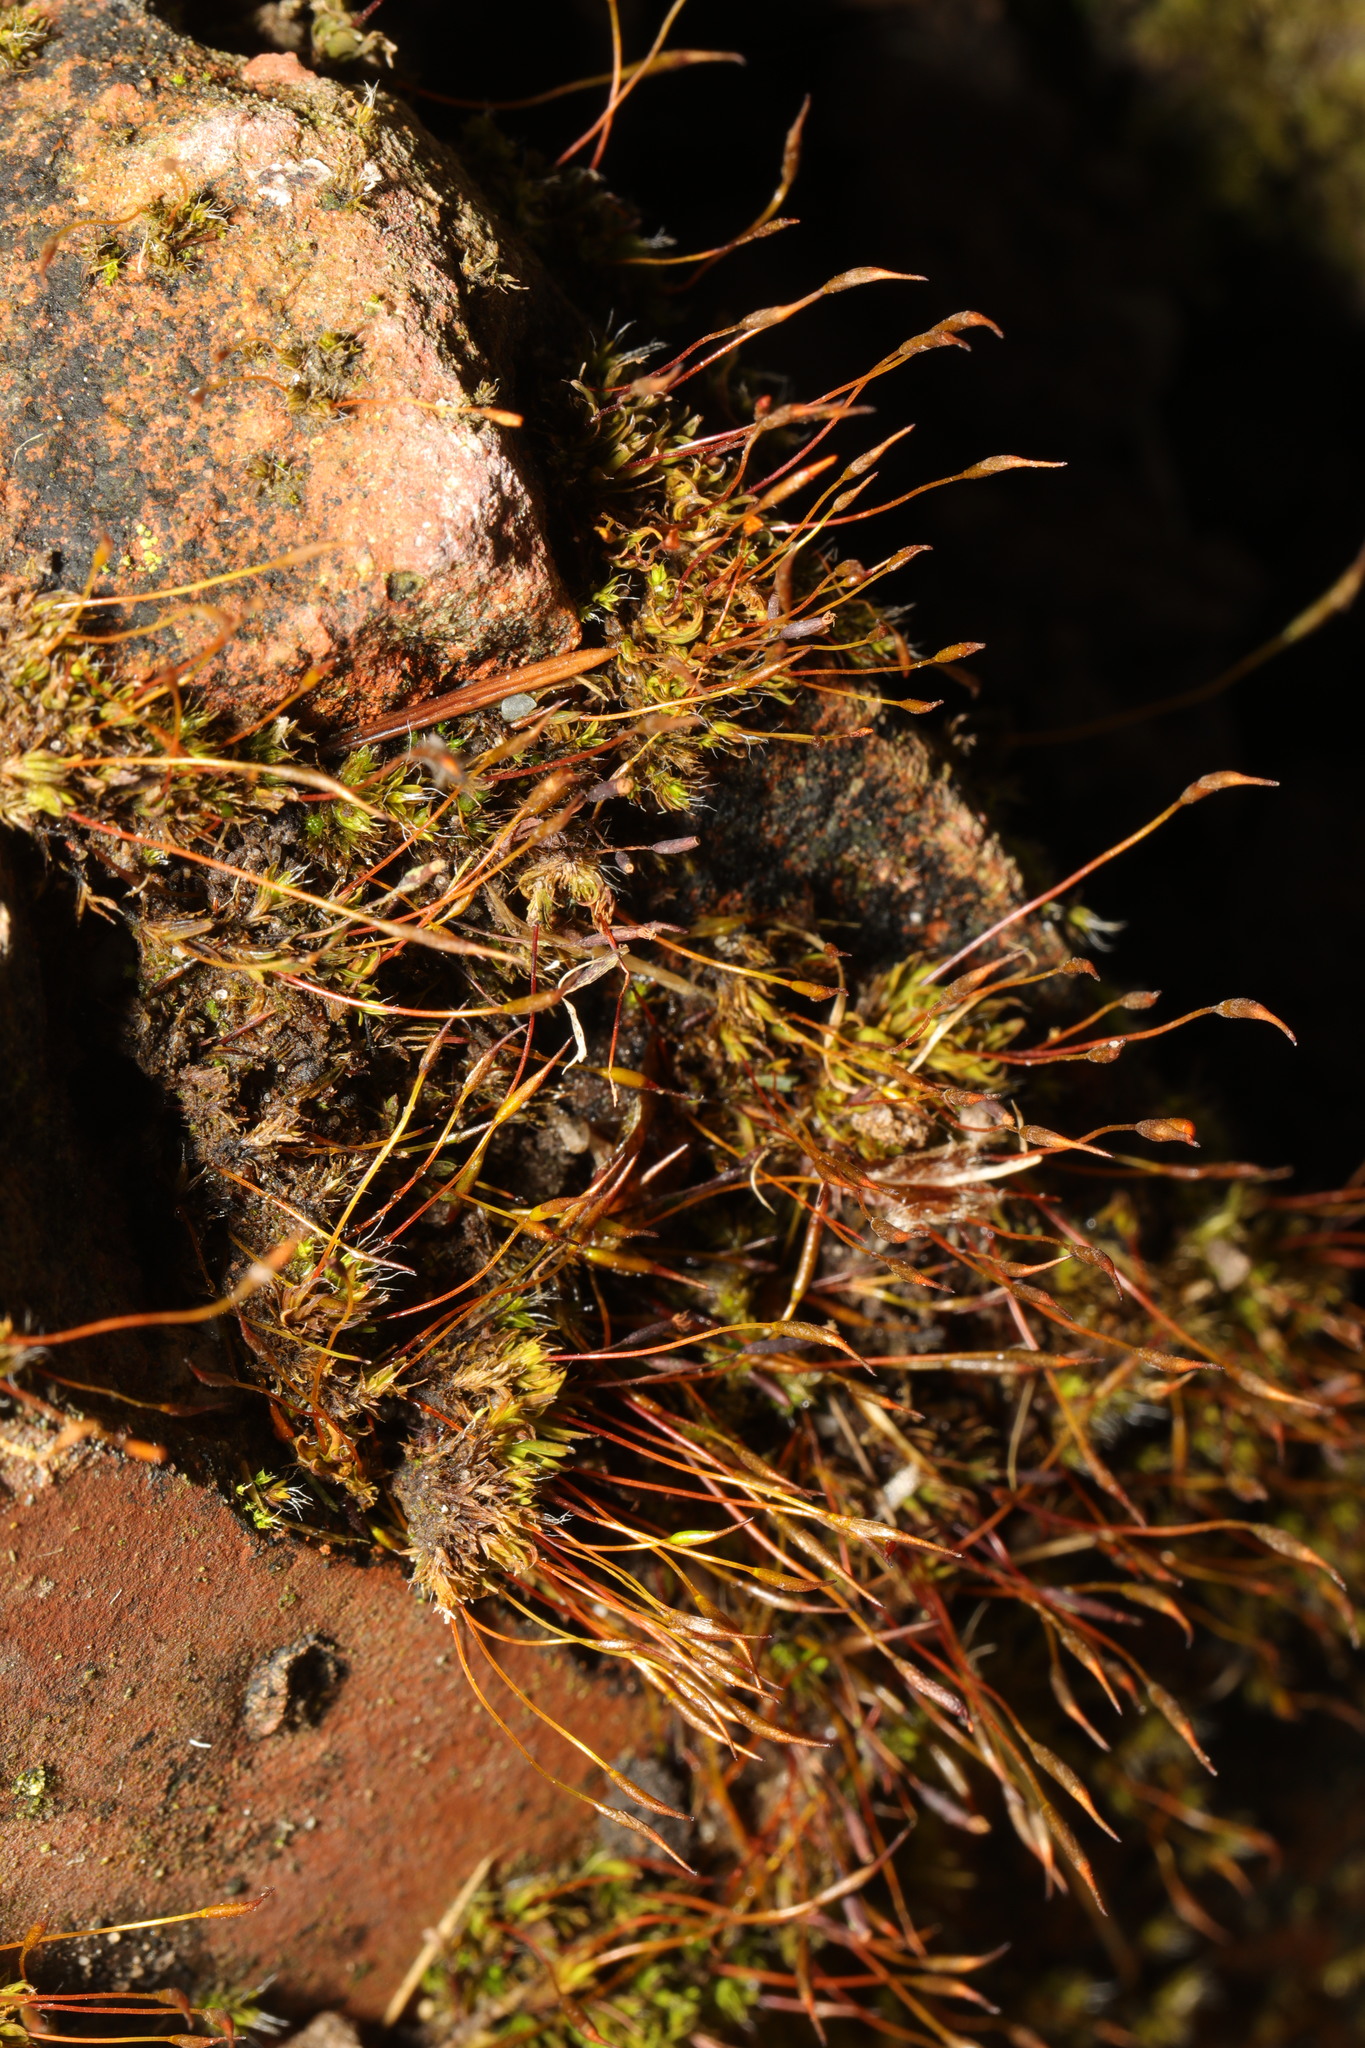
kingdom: Plantae
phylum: Bryophyta
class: Bryopsida
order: Pottiales
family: Pottiaceae
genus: Tortula
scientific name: Tortula muralis
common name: Wall screw-moss
